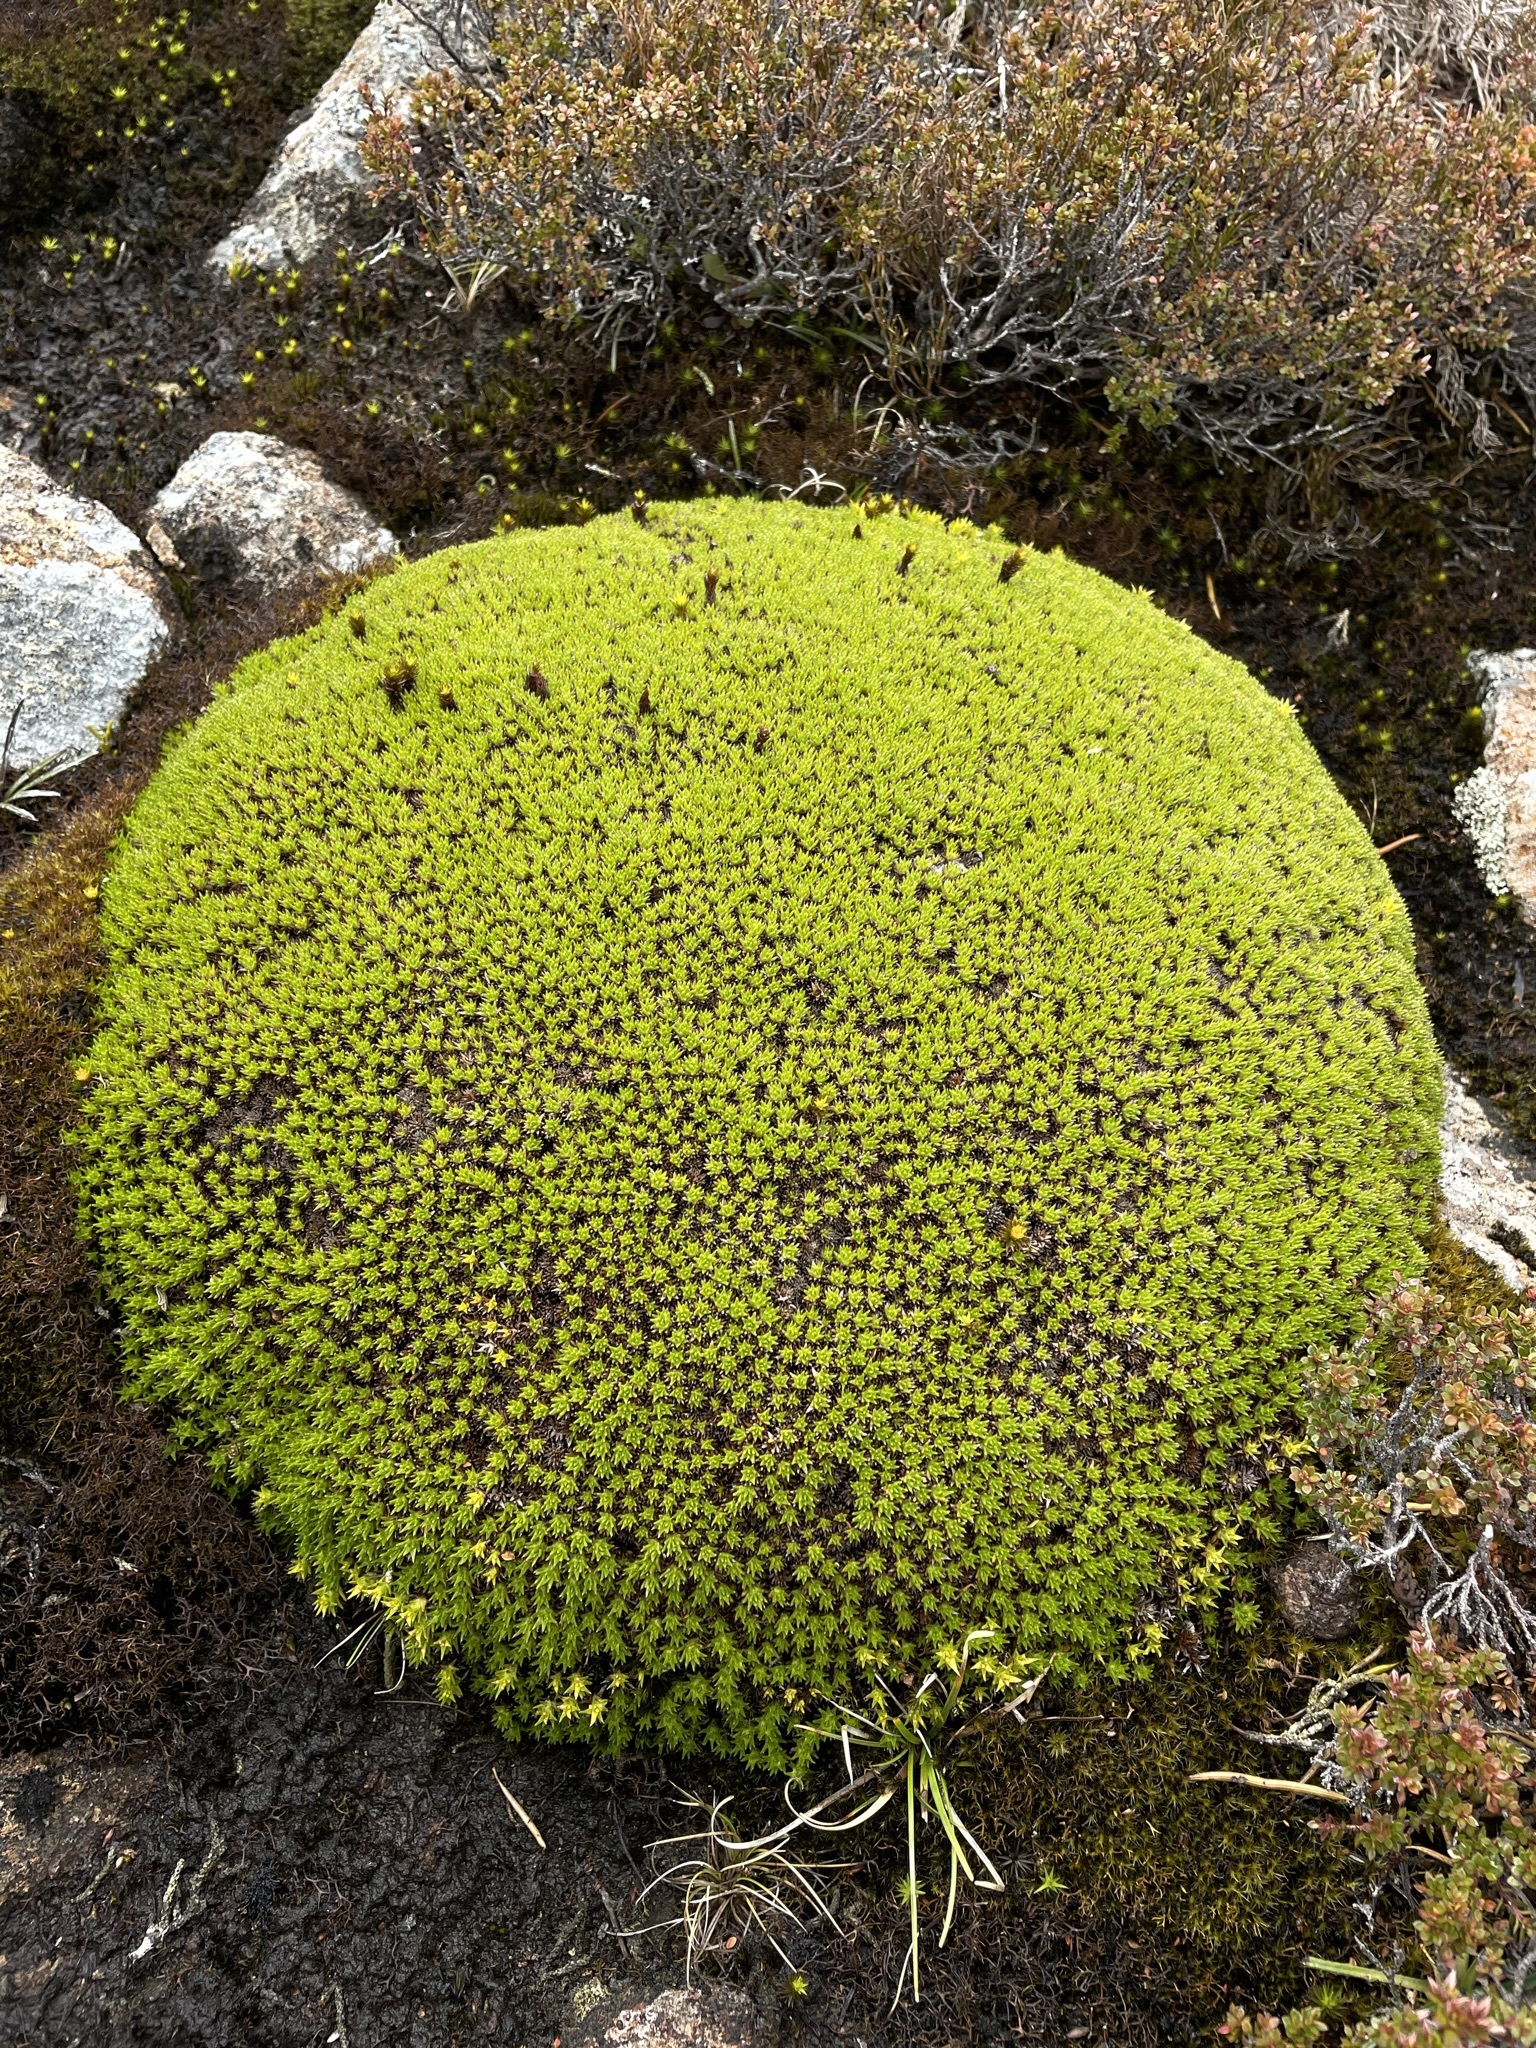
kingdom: Plantae
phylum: Tracheophyta
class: Magnoliopsida
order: Asterales
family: Asteraceae
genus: Abrotanella
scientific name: Abrotanella forsteroides
